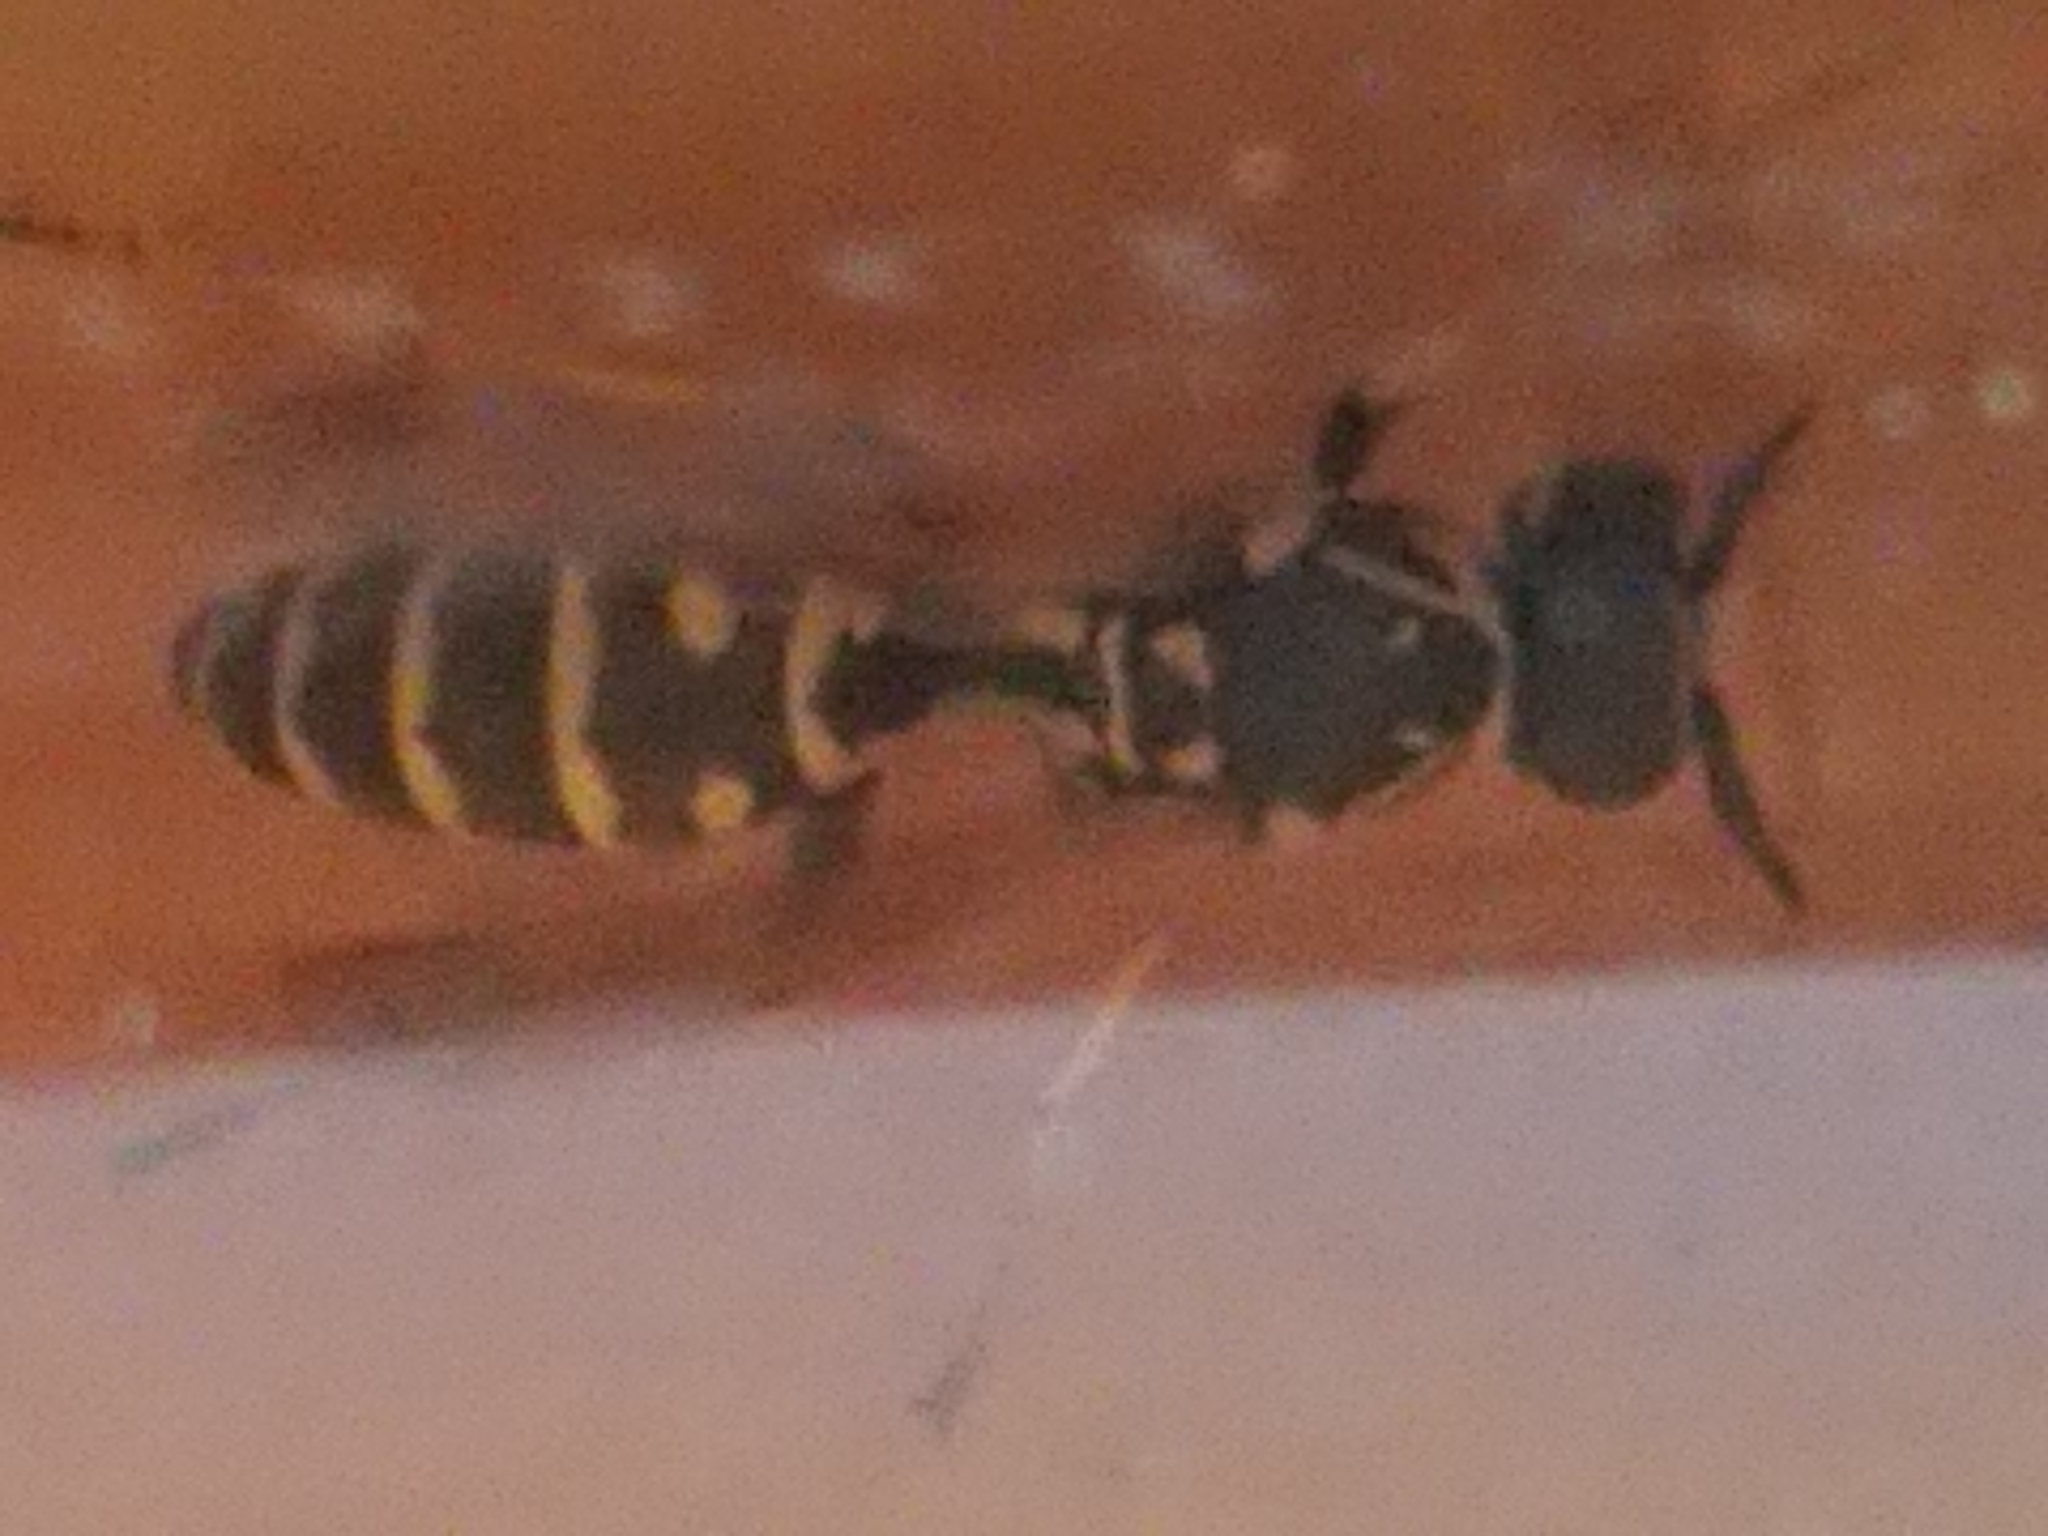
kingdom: Animalia
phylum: Arthropoda
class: Insecta
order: Hymenoptera
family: Eumenidae
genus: Polistes
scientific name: Polistes dominula
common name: Paper wasp
